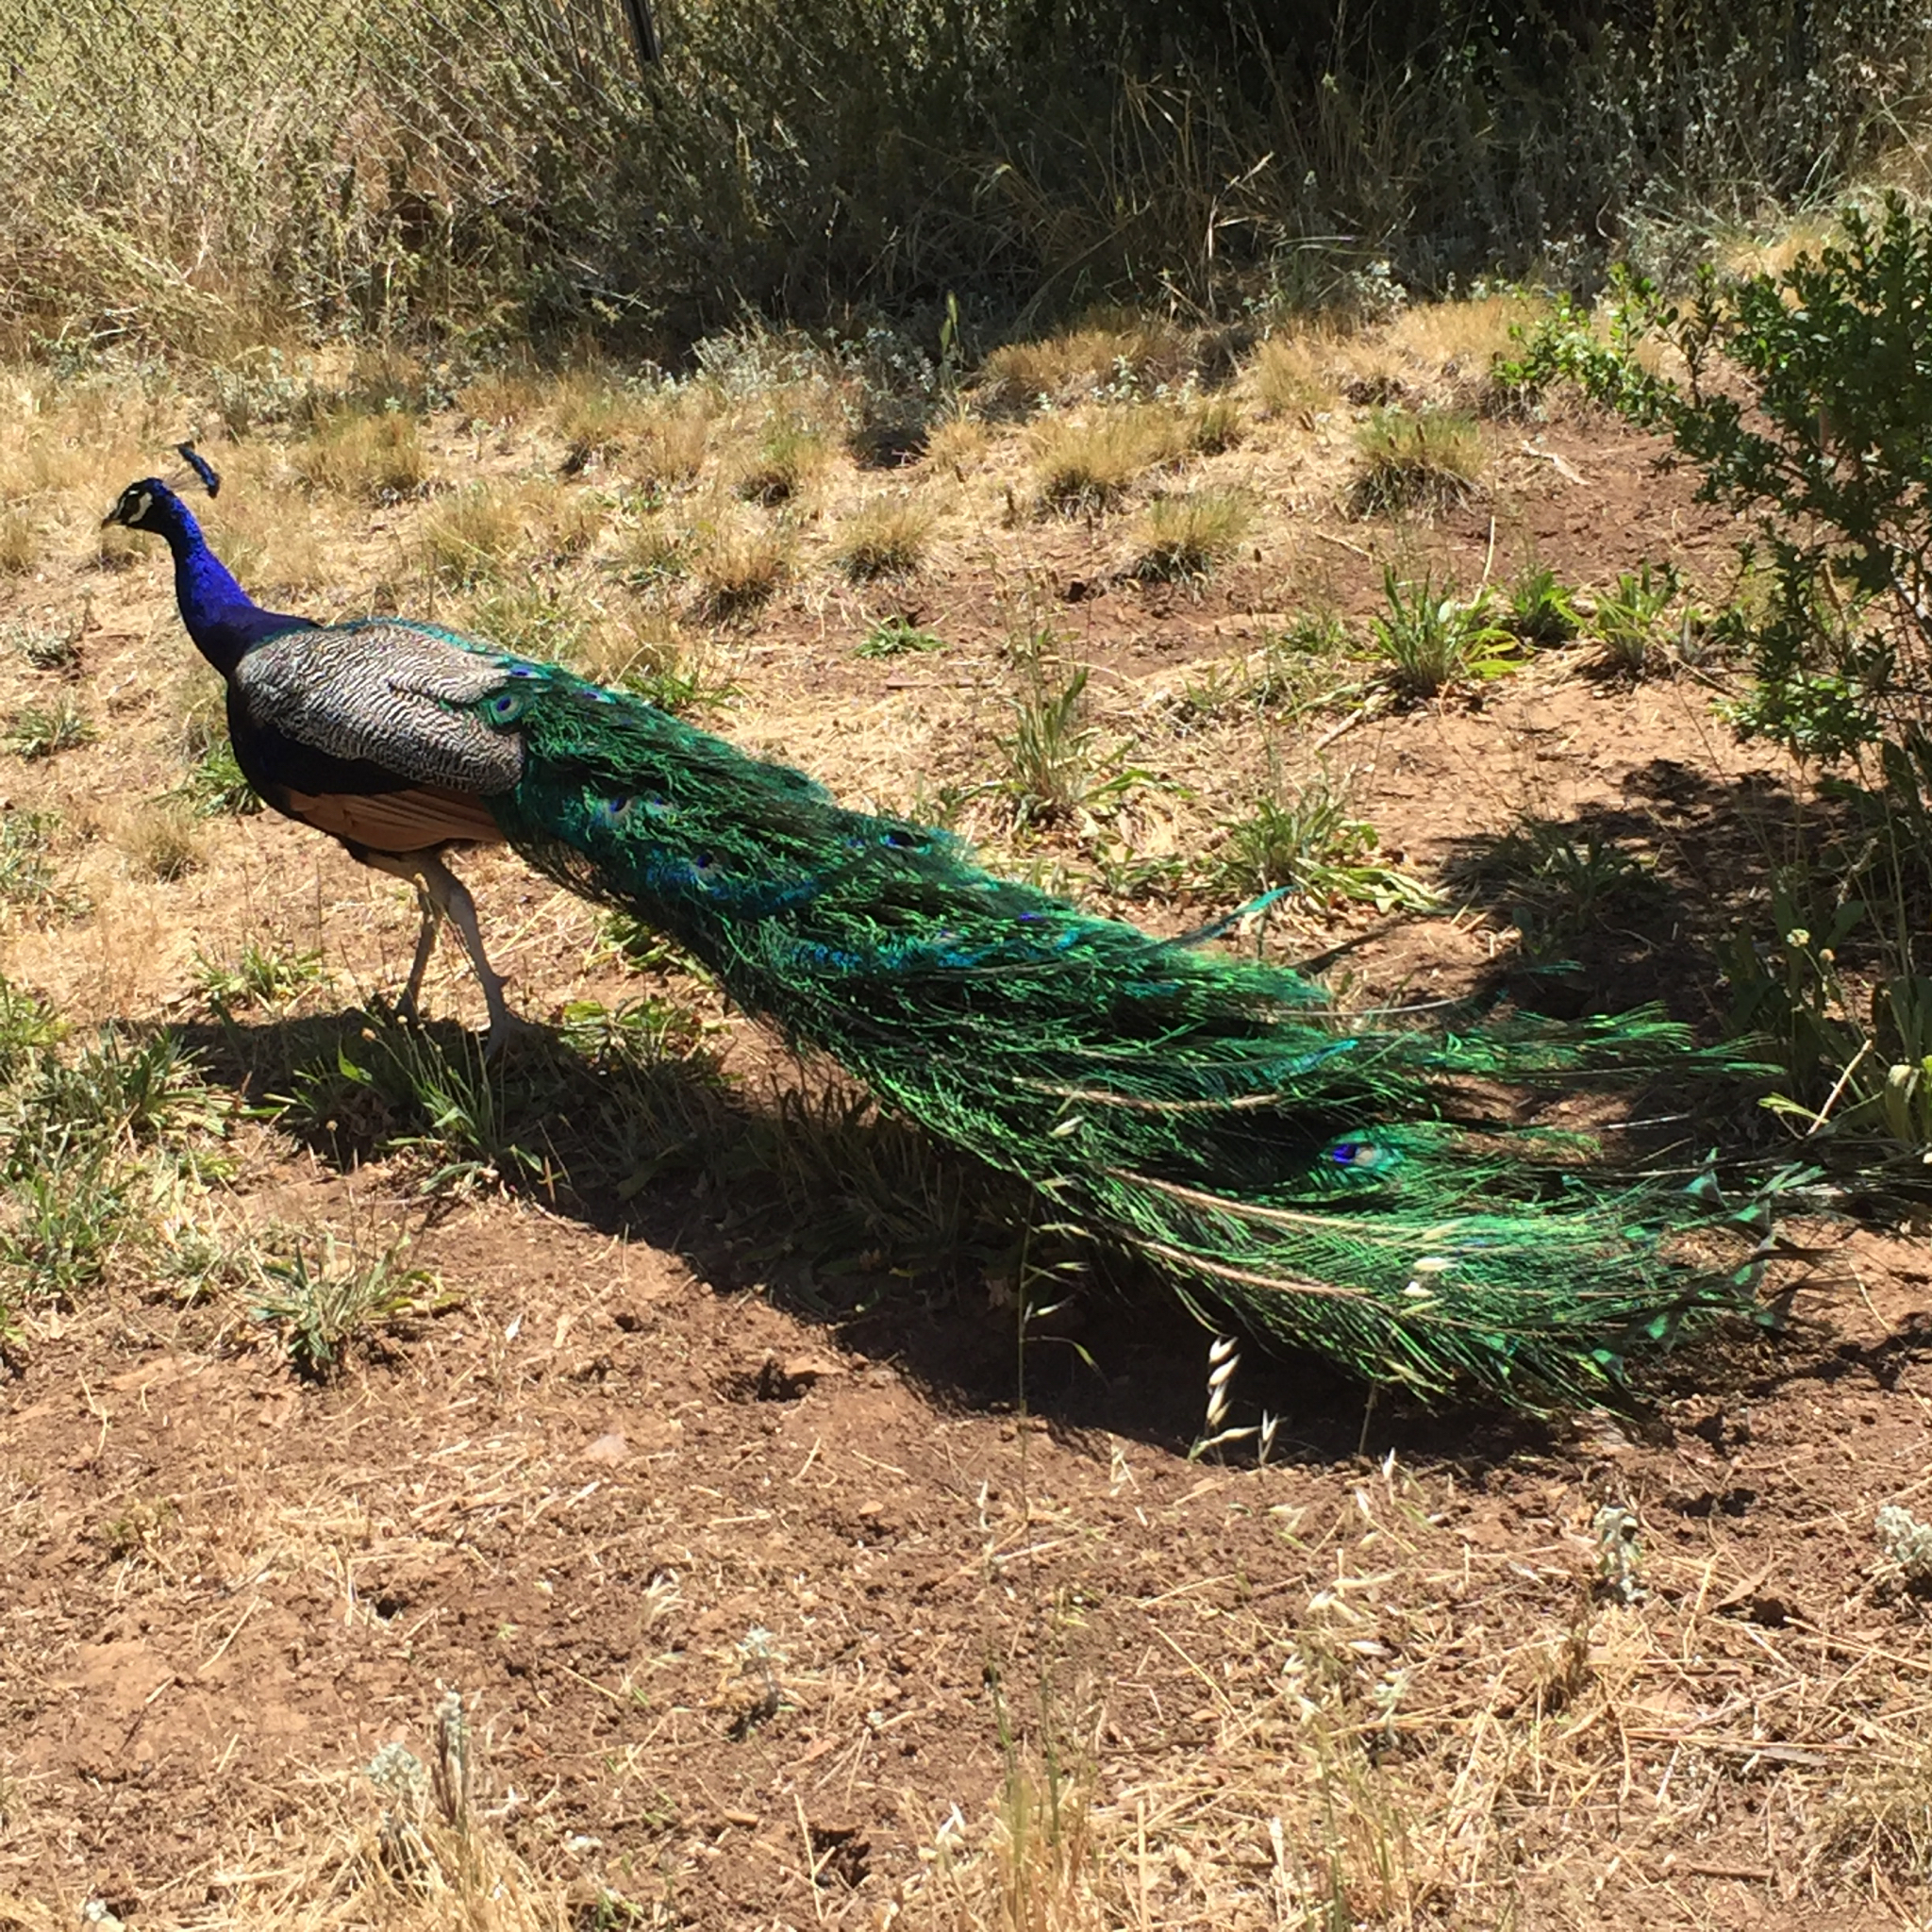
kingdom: Animalia
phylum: Chordata
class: Aves
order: Galliformes
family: Phasianidae
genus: Pavo
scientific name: Pavo cristatus
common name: Indian peafowl
